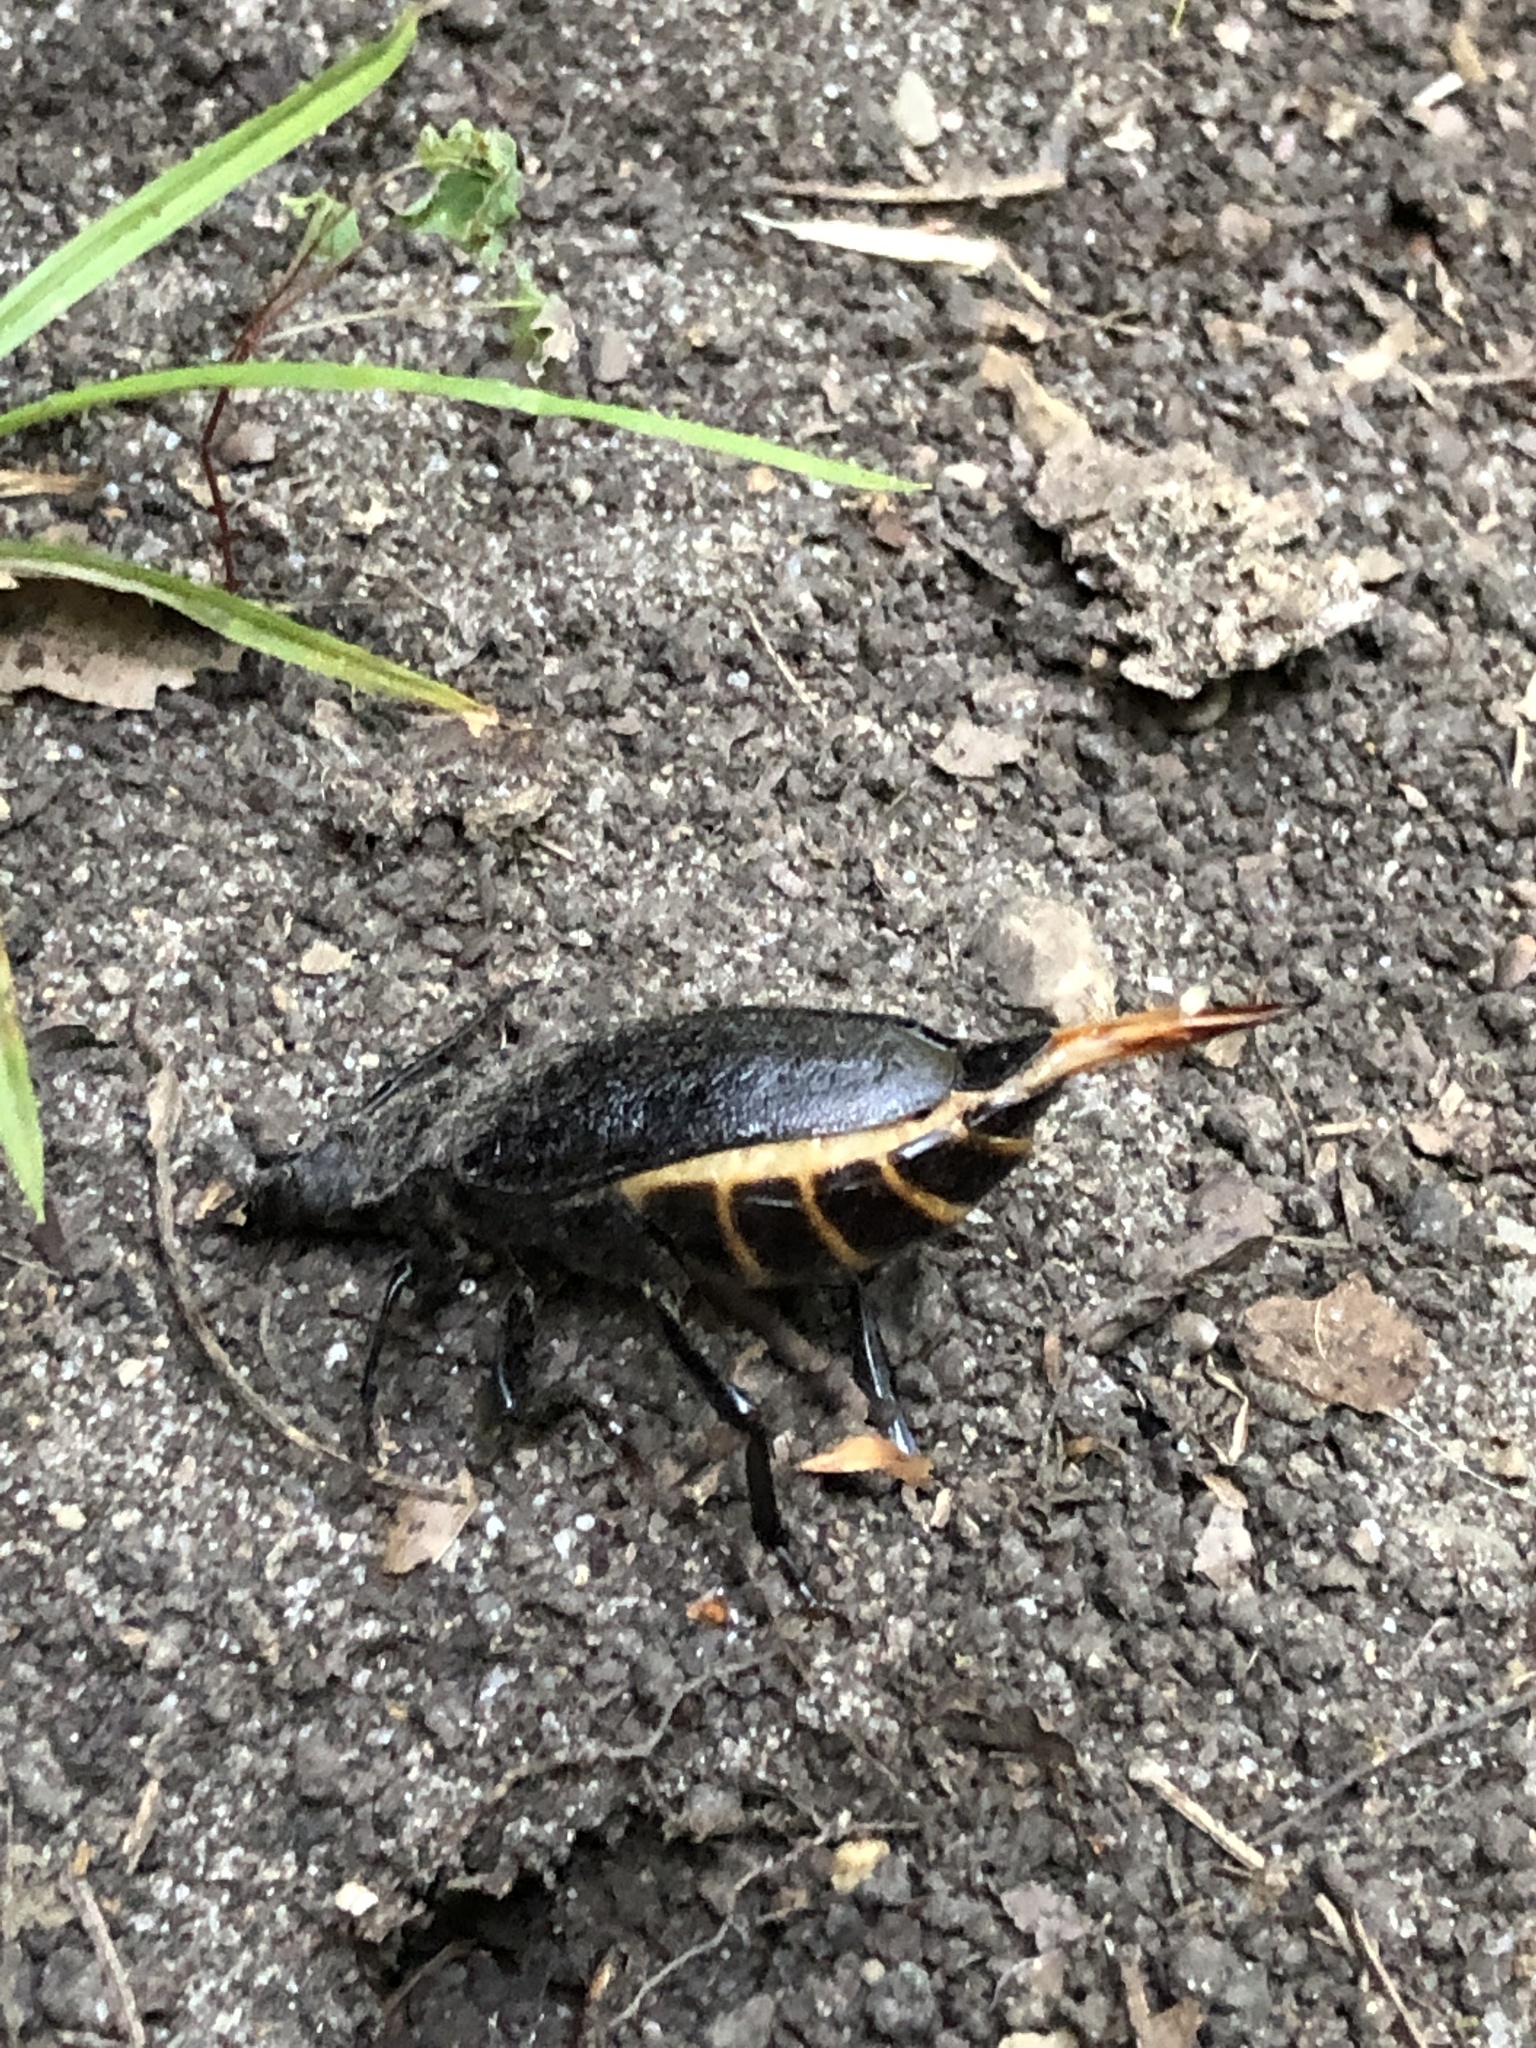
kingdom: Animalia
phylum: Arthropoda
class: Insecta
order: Coleoptera
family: Cerambycidae
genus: Prionus
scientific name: Prionus laticollis
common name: Broad necked prionus
